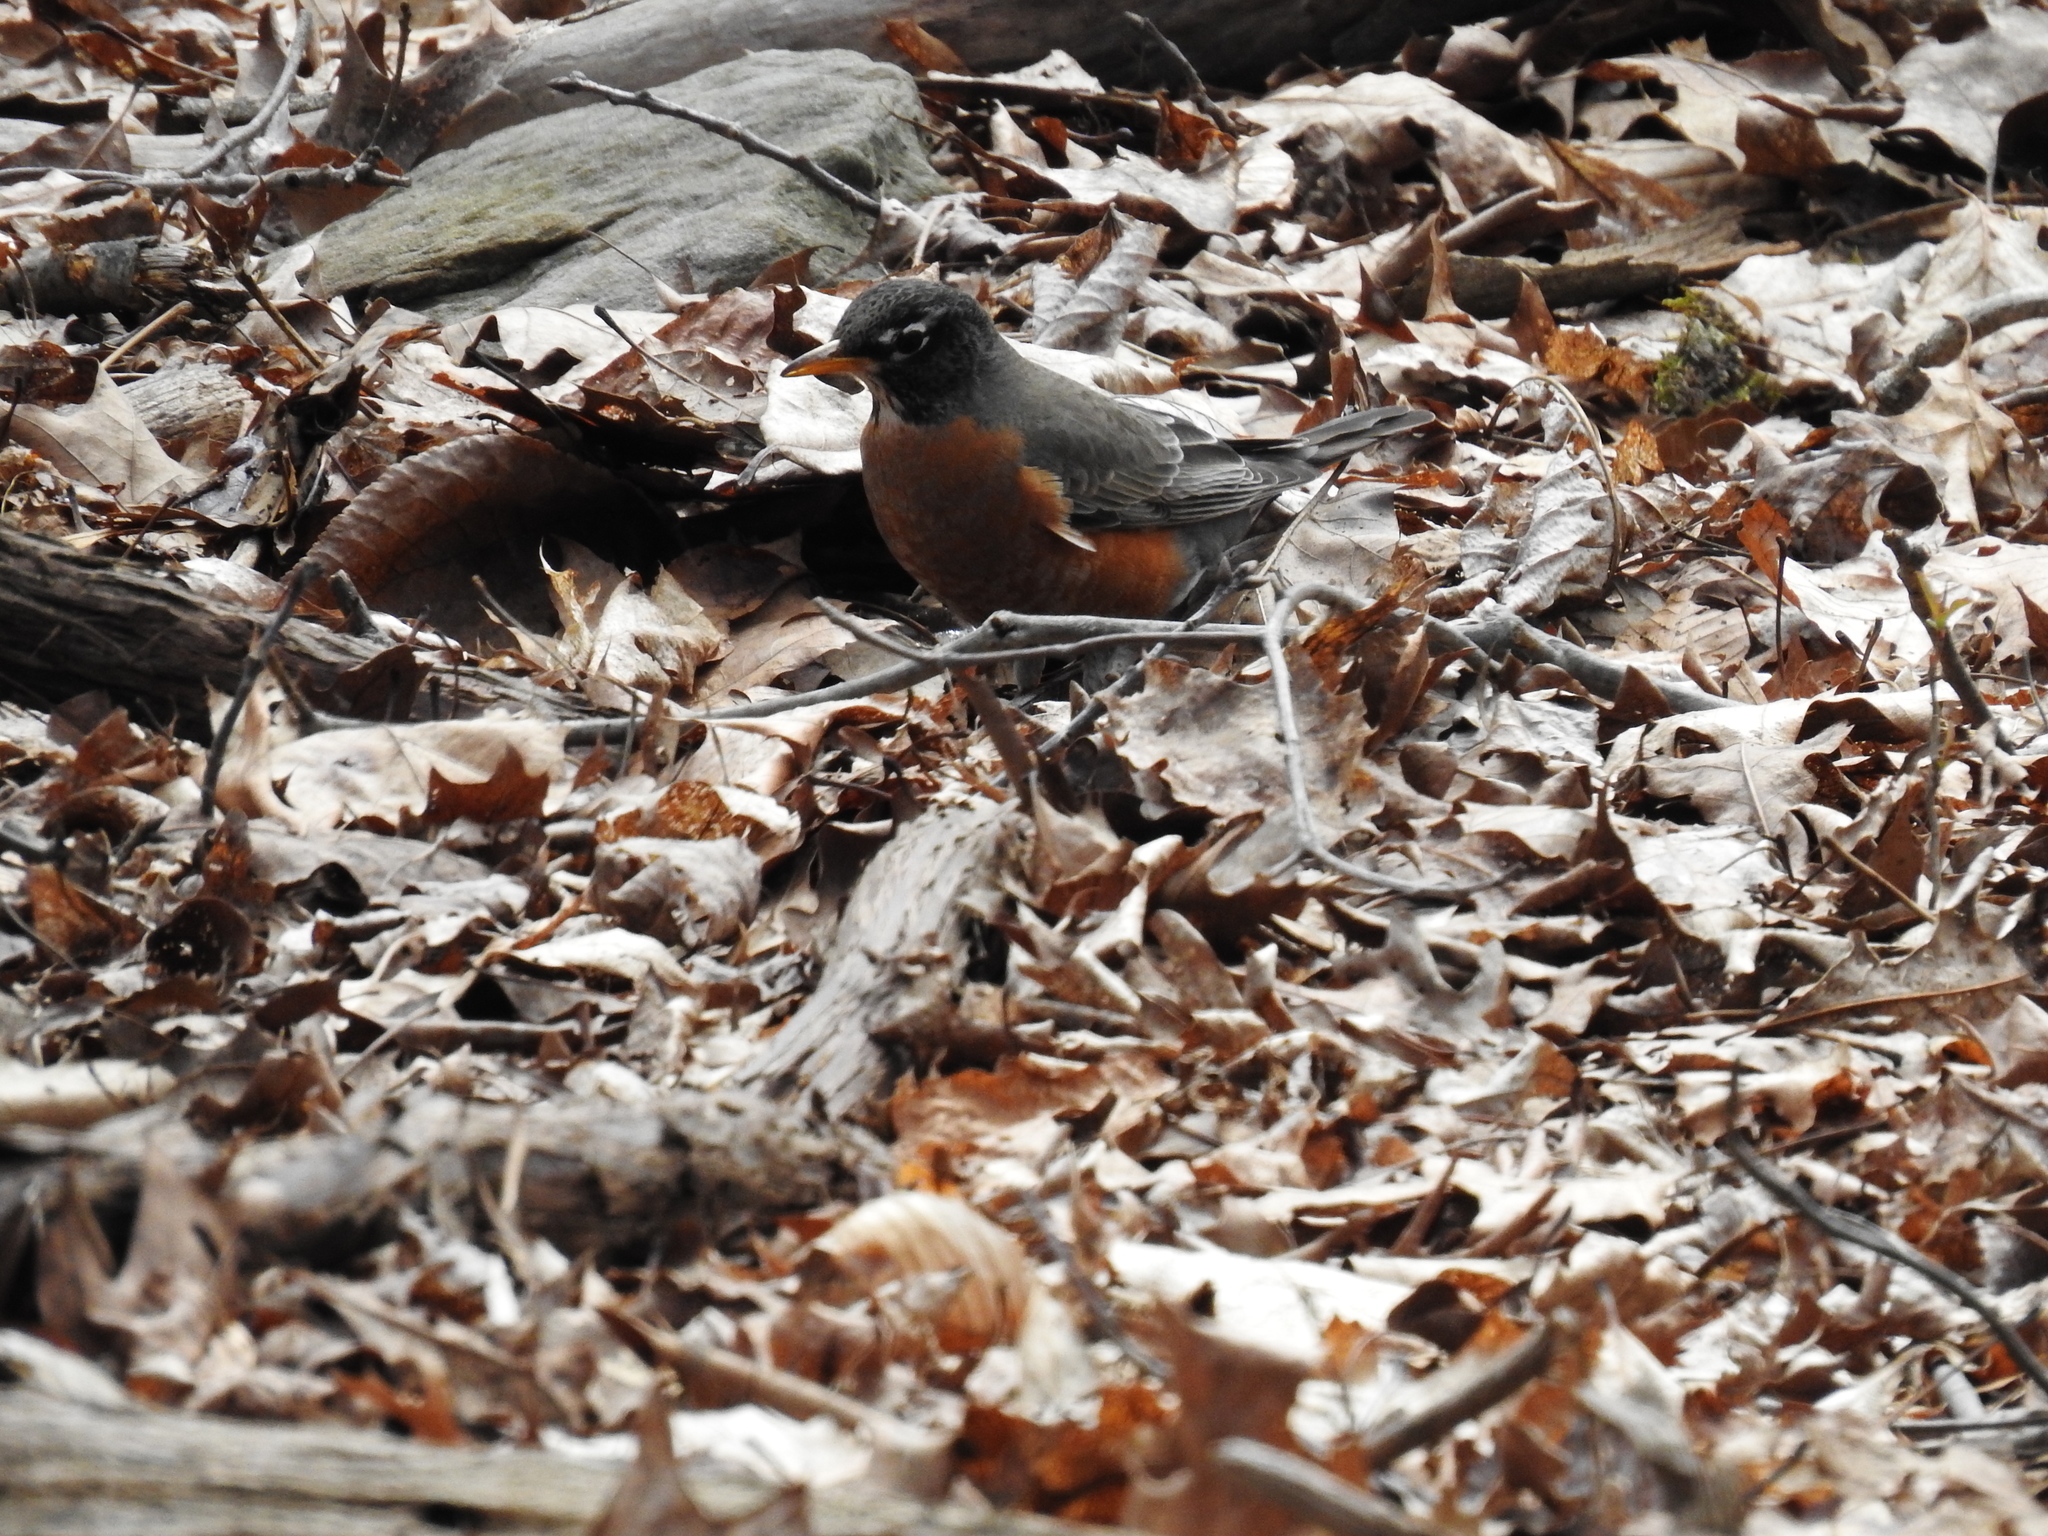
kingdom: Animalia
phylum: Chordata
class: Aves
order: Passeriformes
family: Turdidae
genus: Turdus
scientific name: Turdus migratorius
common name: American robin
